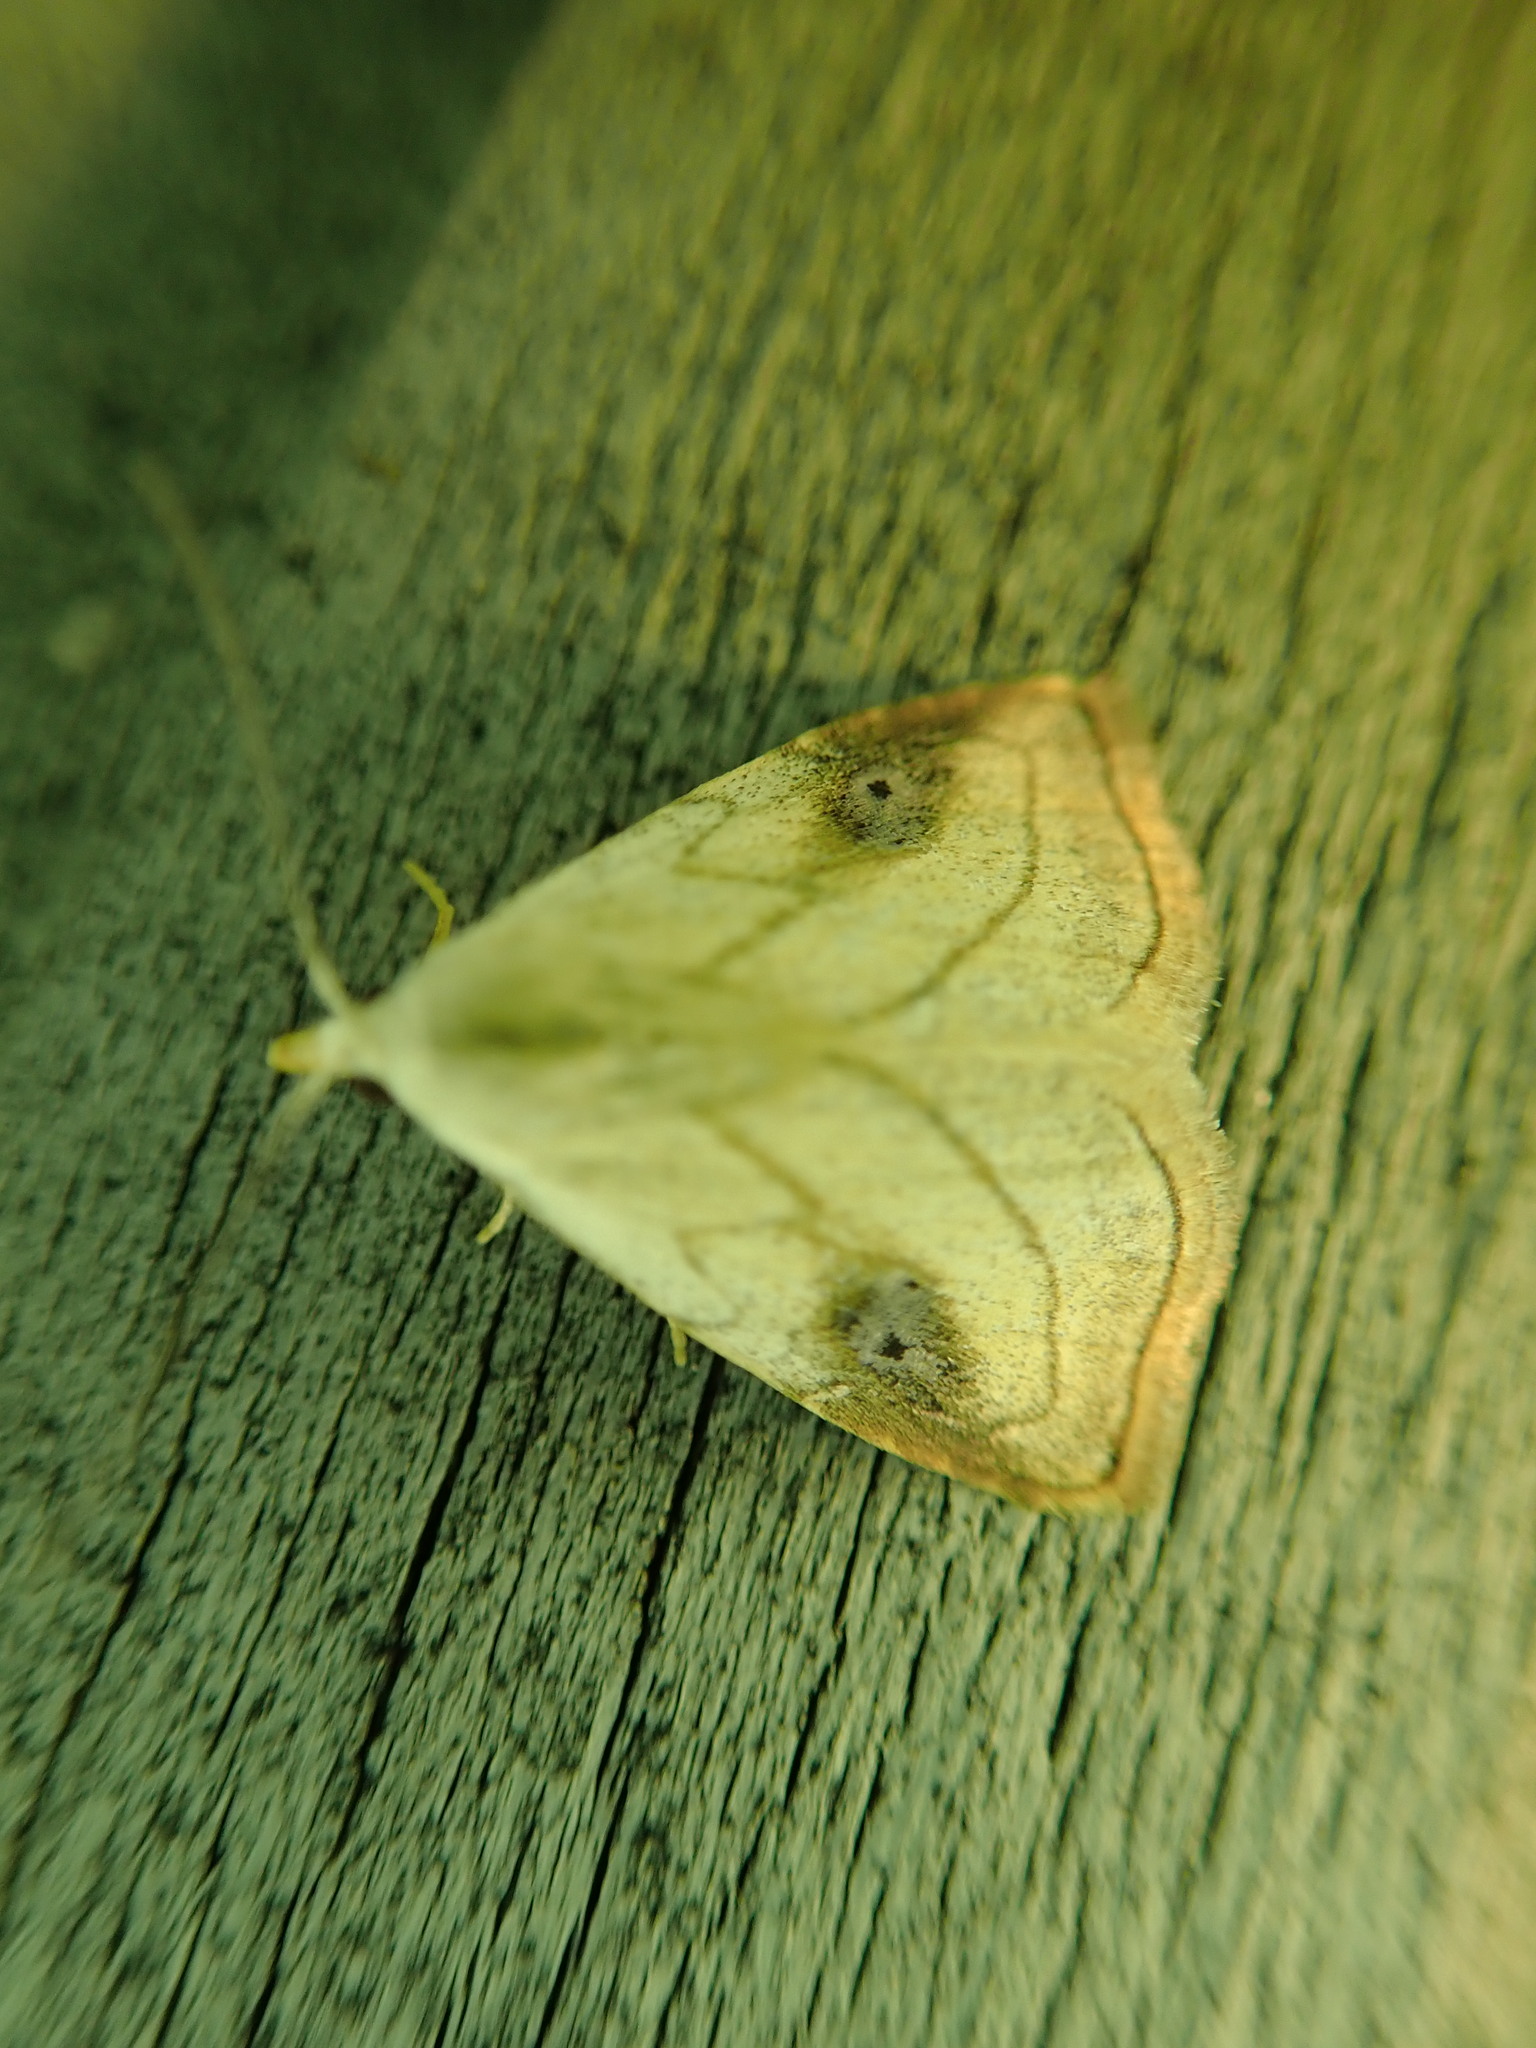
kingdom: Animalia
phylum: Arthropoda
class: Insecta
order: Lepidoptera
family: Erebidae
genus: Rivula
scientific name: Rivula propinqualis
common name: Spotted grass moth
